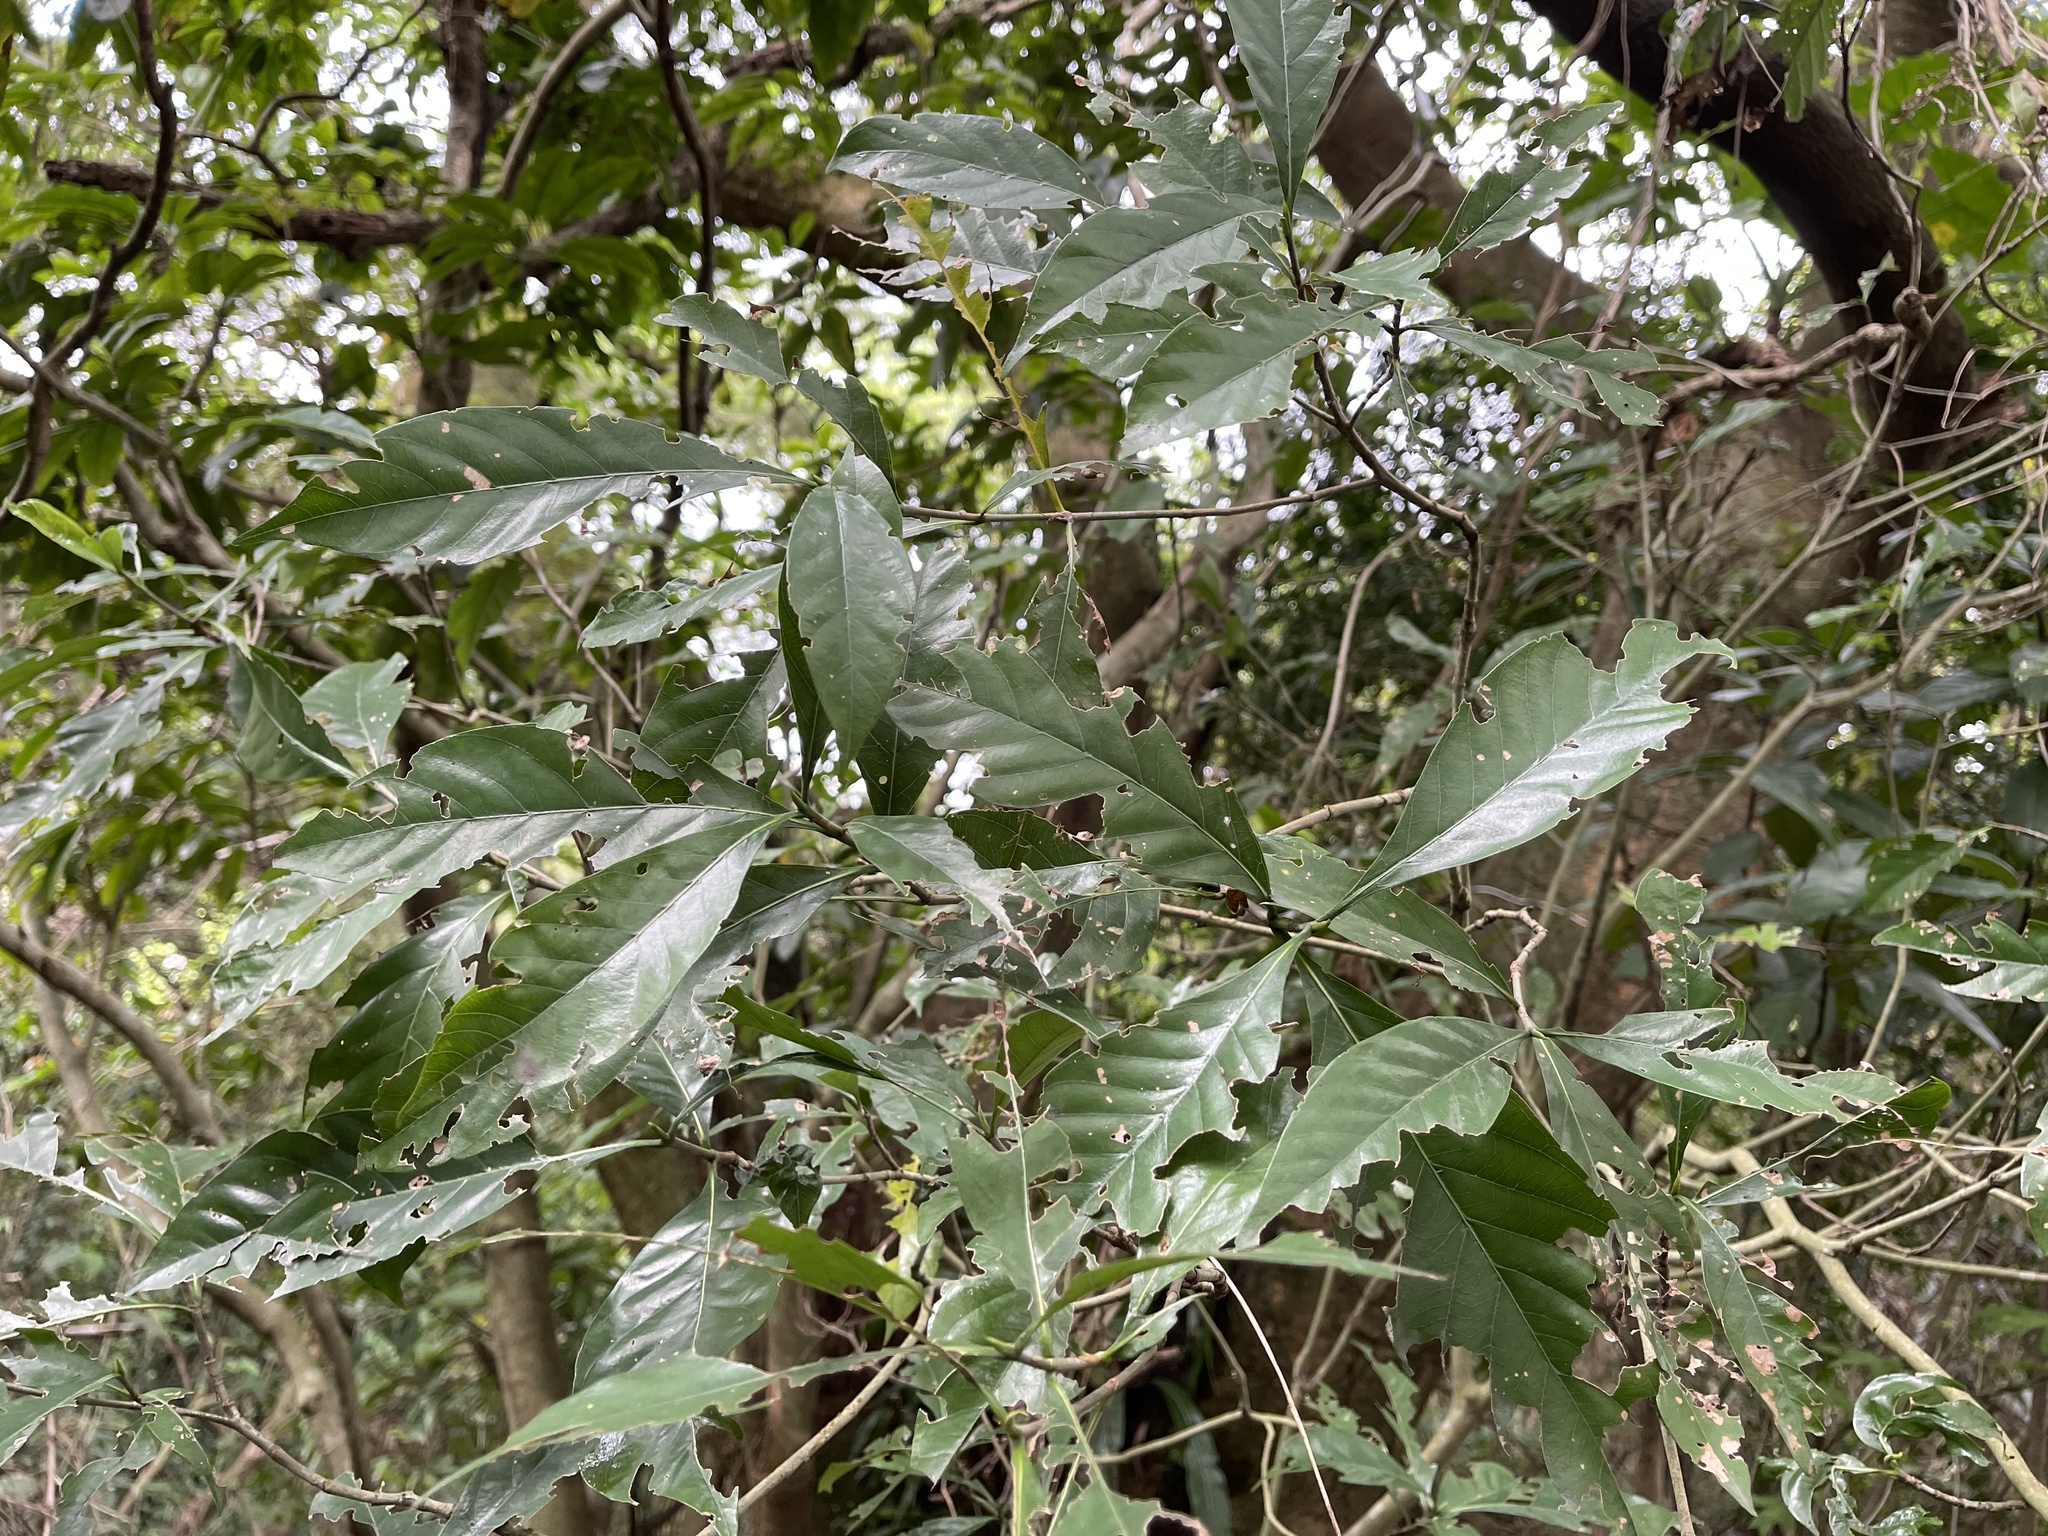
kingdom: Plantae
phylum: Tracheophyta
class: Magnoliopsida
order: Gentianales
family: Rubiaceae
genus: Gardenia
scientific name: Gardenia jasminoides
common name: Cape-jasmine
